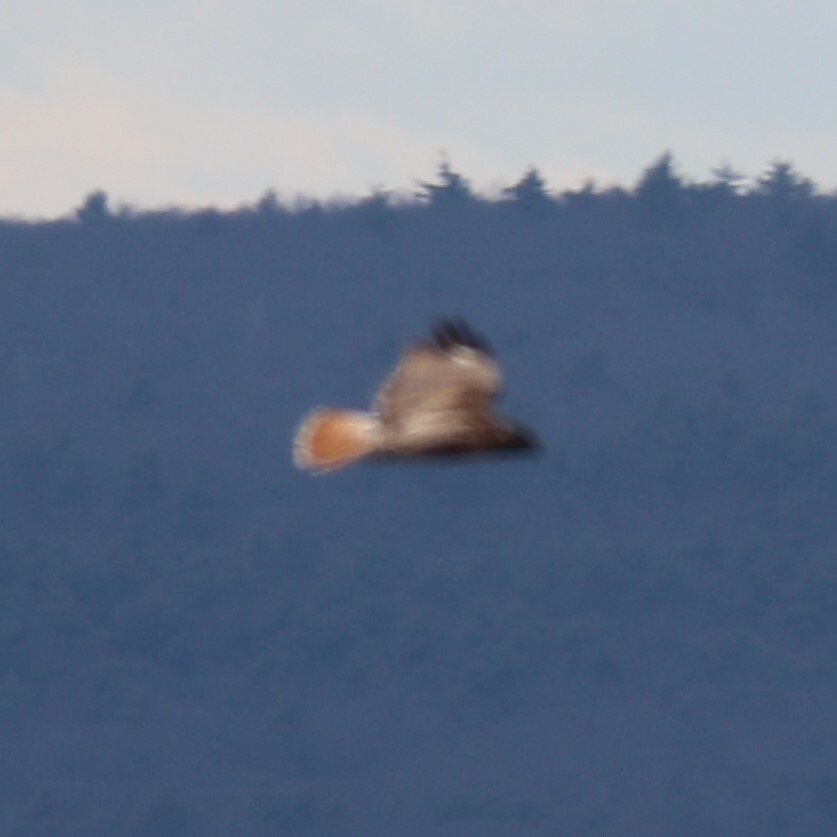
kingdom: Animalia
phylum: Chordata
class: Aves
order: Accipitriformes
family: Accipitridae
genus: Buteo
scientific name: Buteo jamaicensis
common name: Red-tailed hawk
